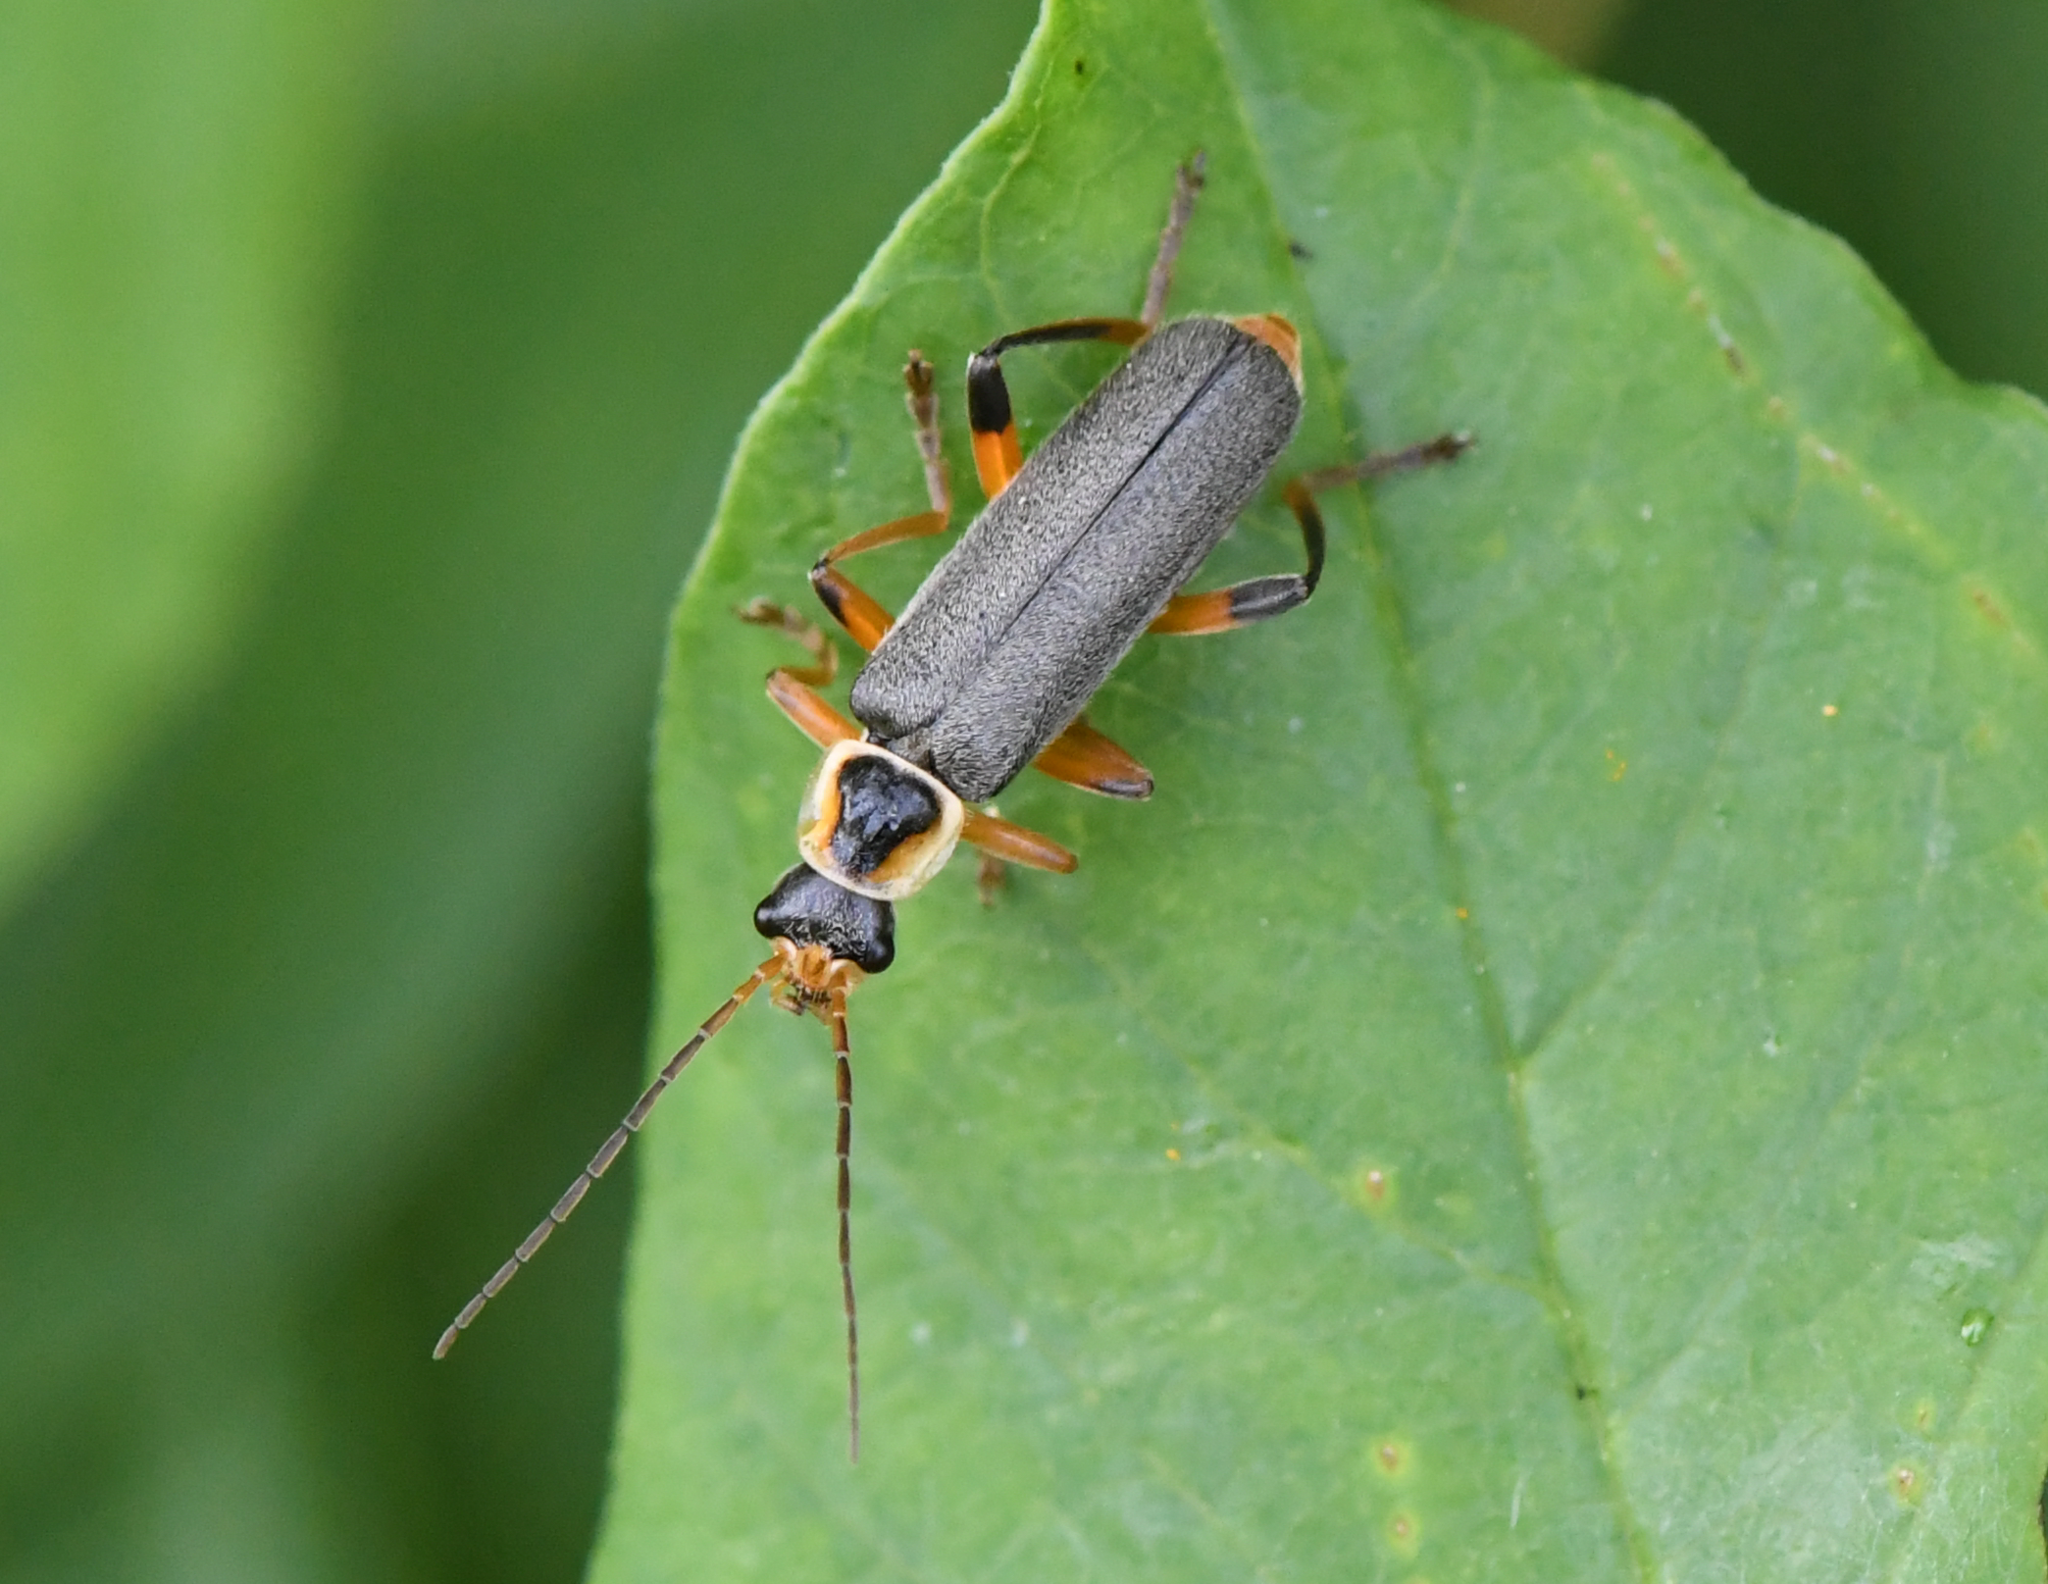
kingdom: Animalia
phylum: Arthropoda
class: Insecta
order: Coleoptera
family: Cantharidae
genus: Cantharis
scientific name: Cantharis nigricans
